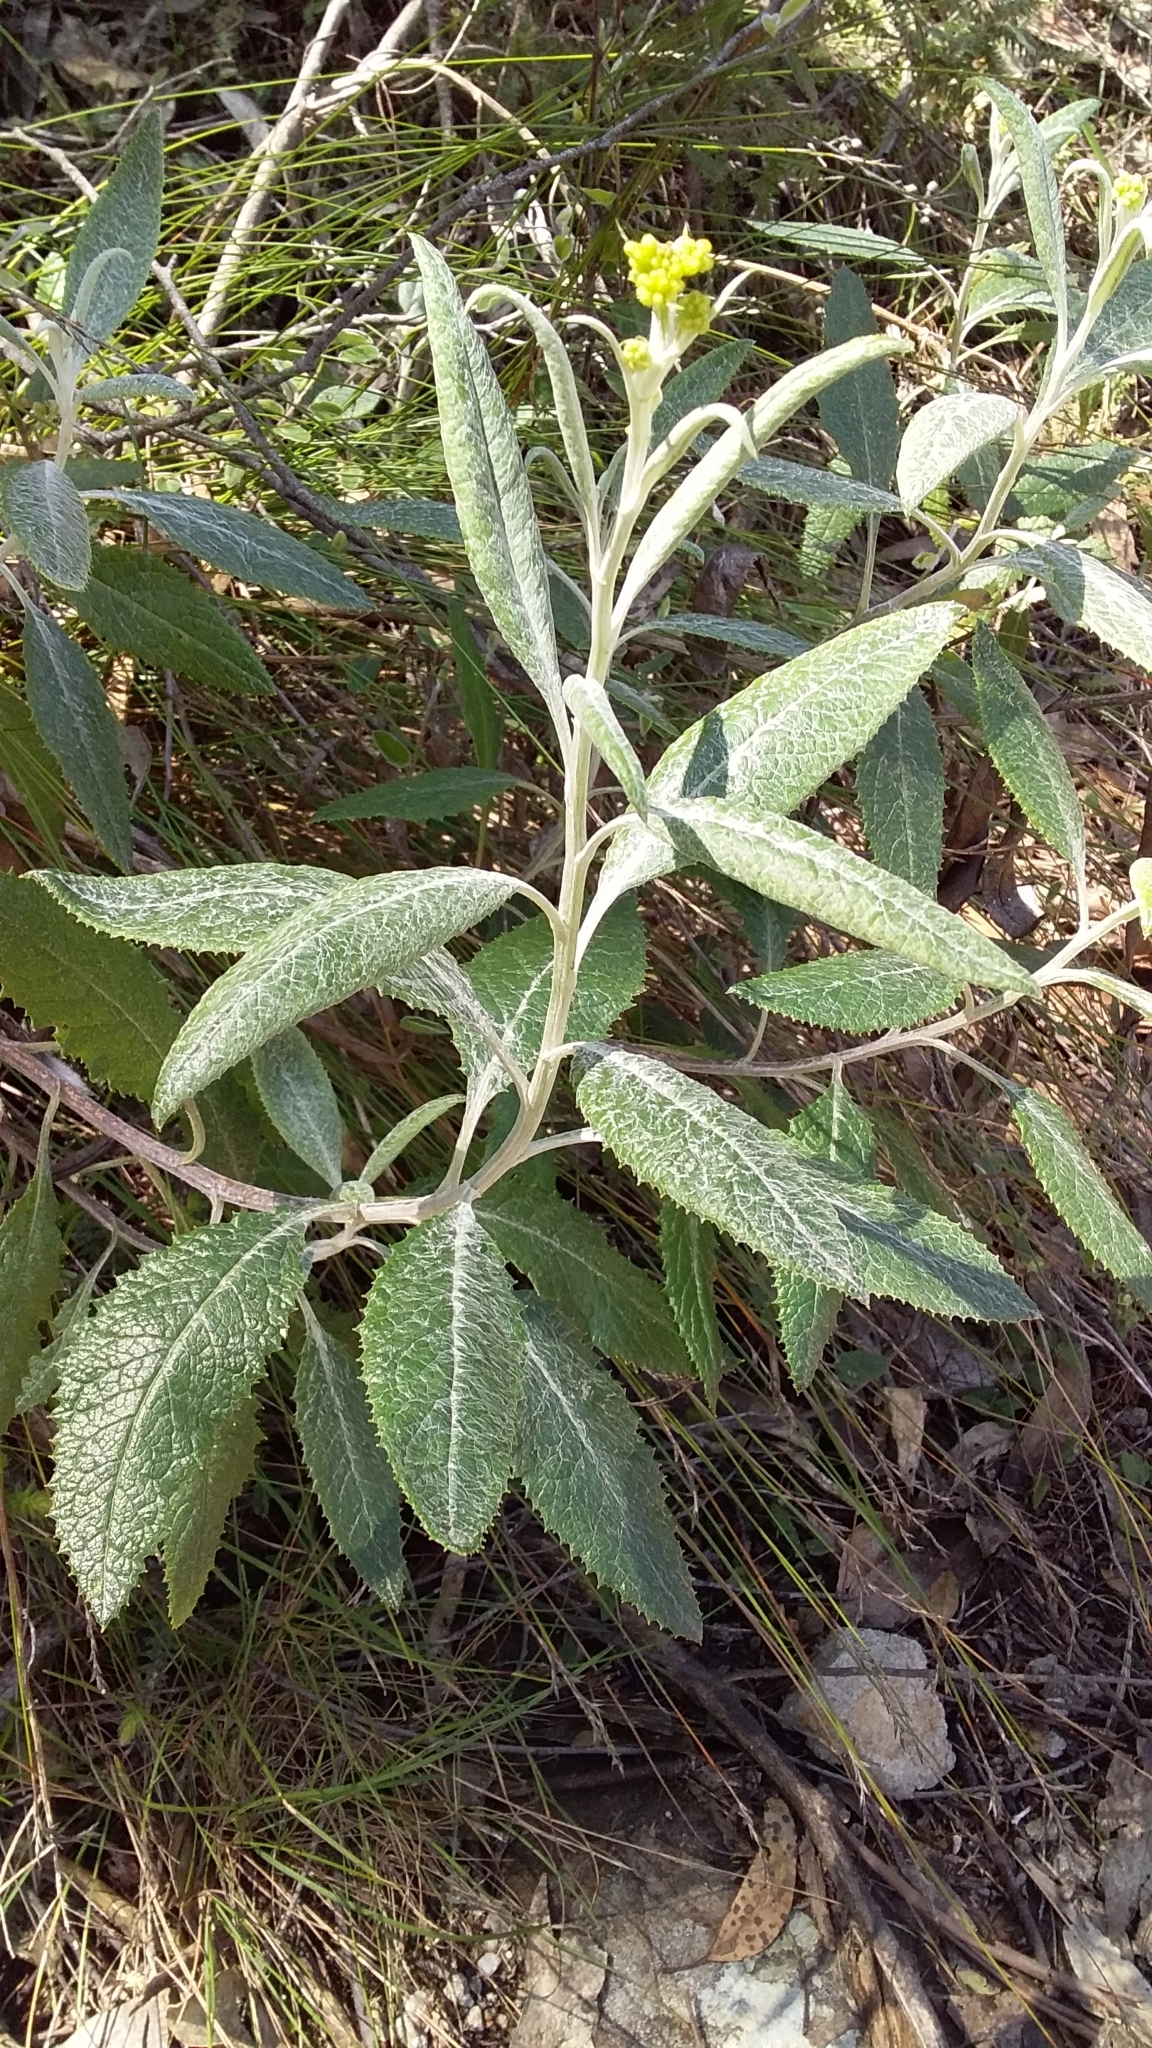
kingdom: Plantae
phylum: Tracheophyta
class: Magnoliopsida
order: Asterales
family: Asteraceae
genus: Senecio
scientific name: Senecio hypoleucus
